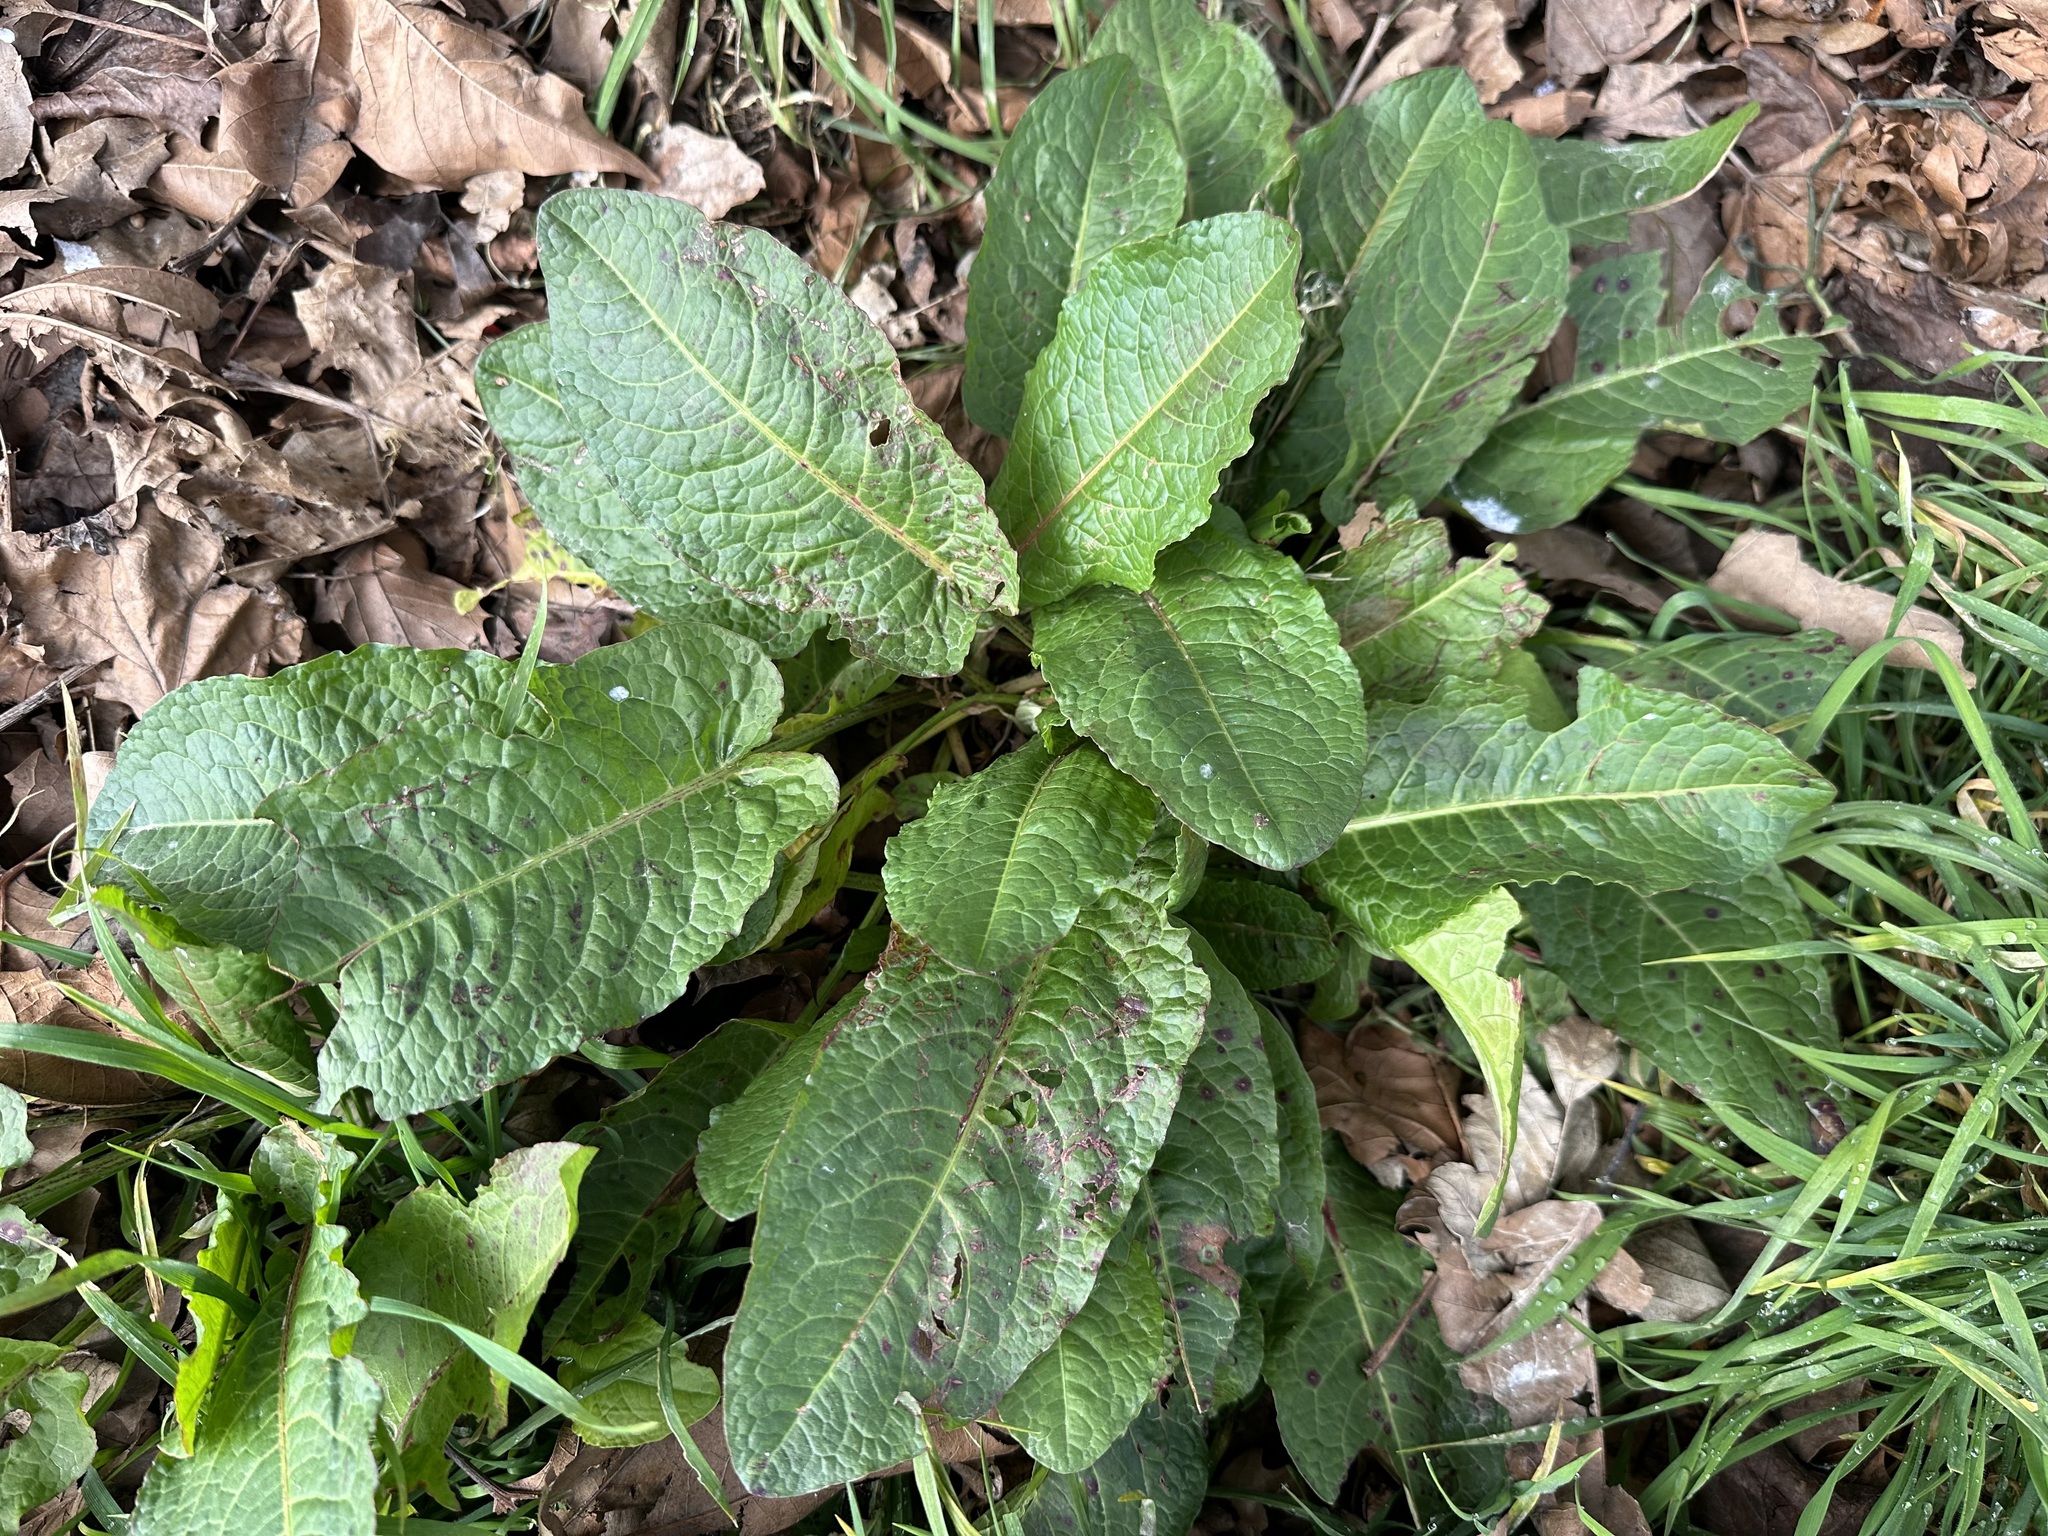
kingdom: Plantae
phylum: Tracheophyta
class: Magnoliopsida
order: Caryophyllales
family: Polygonaceae
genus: Rumex
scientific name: Rumex obtusifolius
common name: Bitter dock
